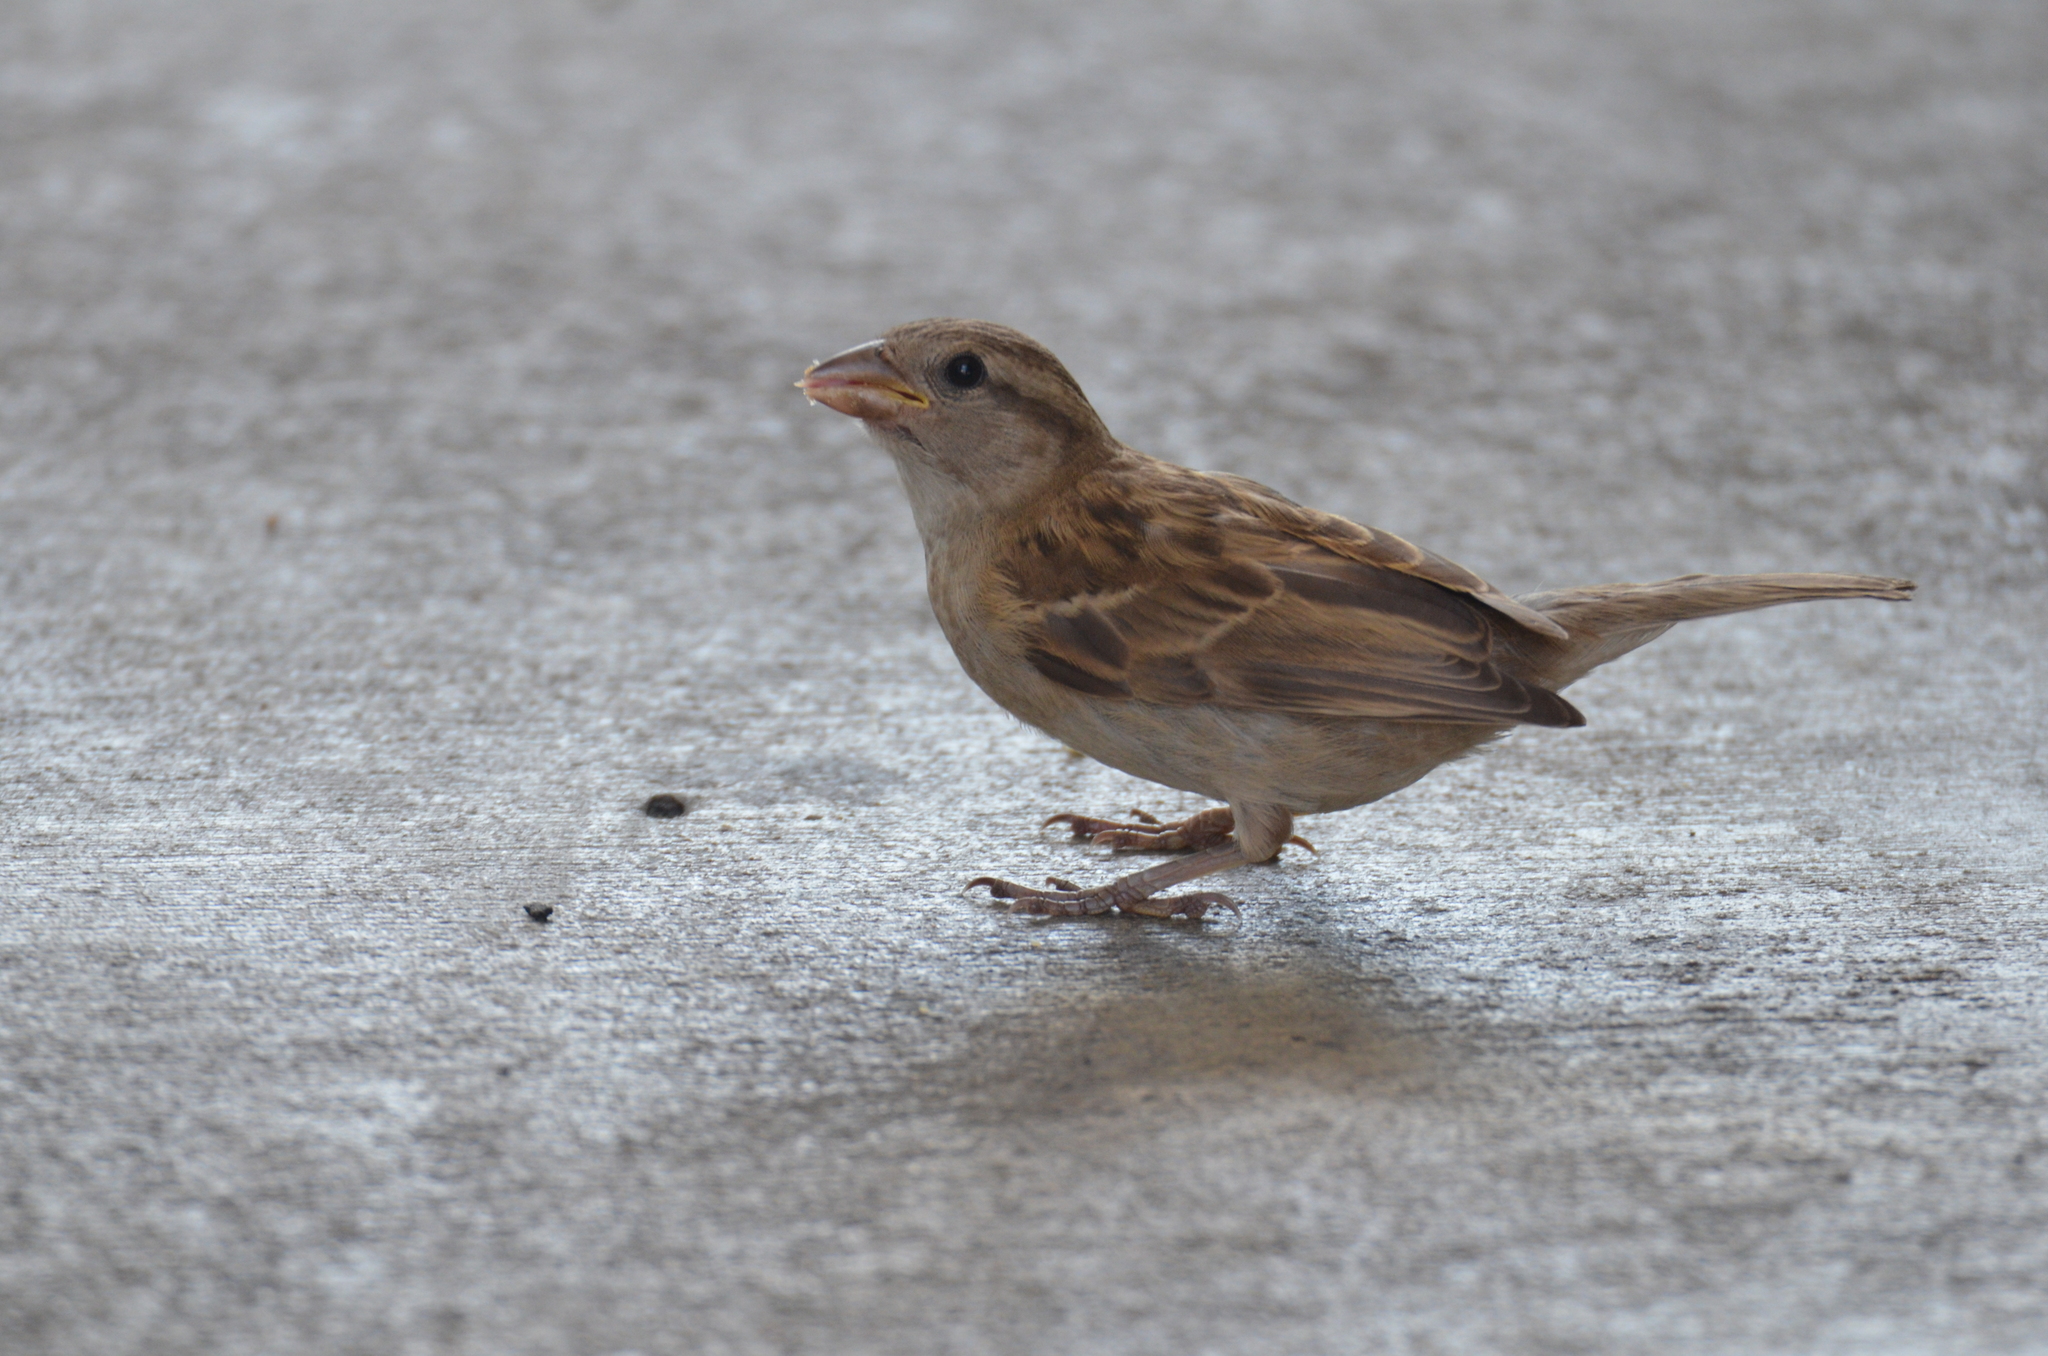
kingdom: Animalia
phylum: Chordata
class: Aves
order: Passeriformes
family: Passeridae
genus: Passer
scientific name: Passer domesticus
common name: House sparrow
